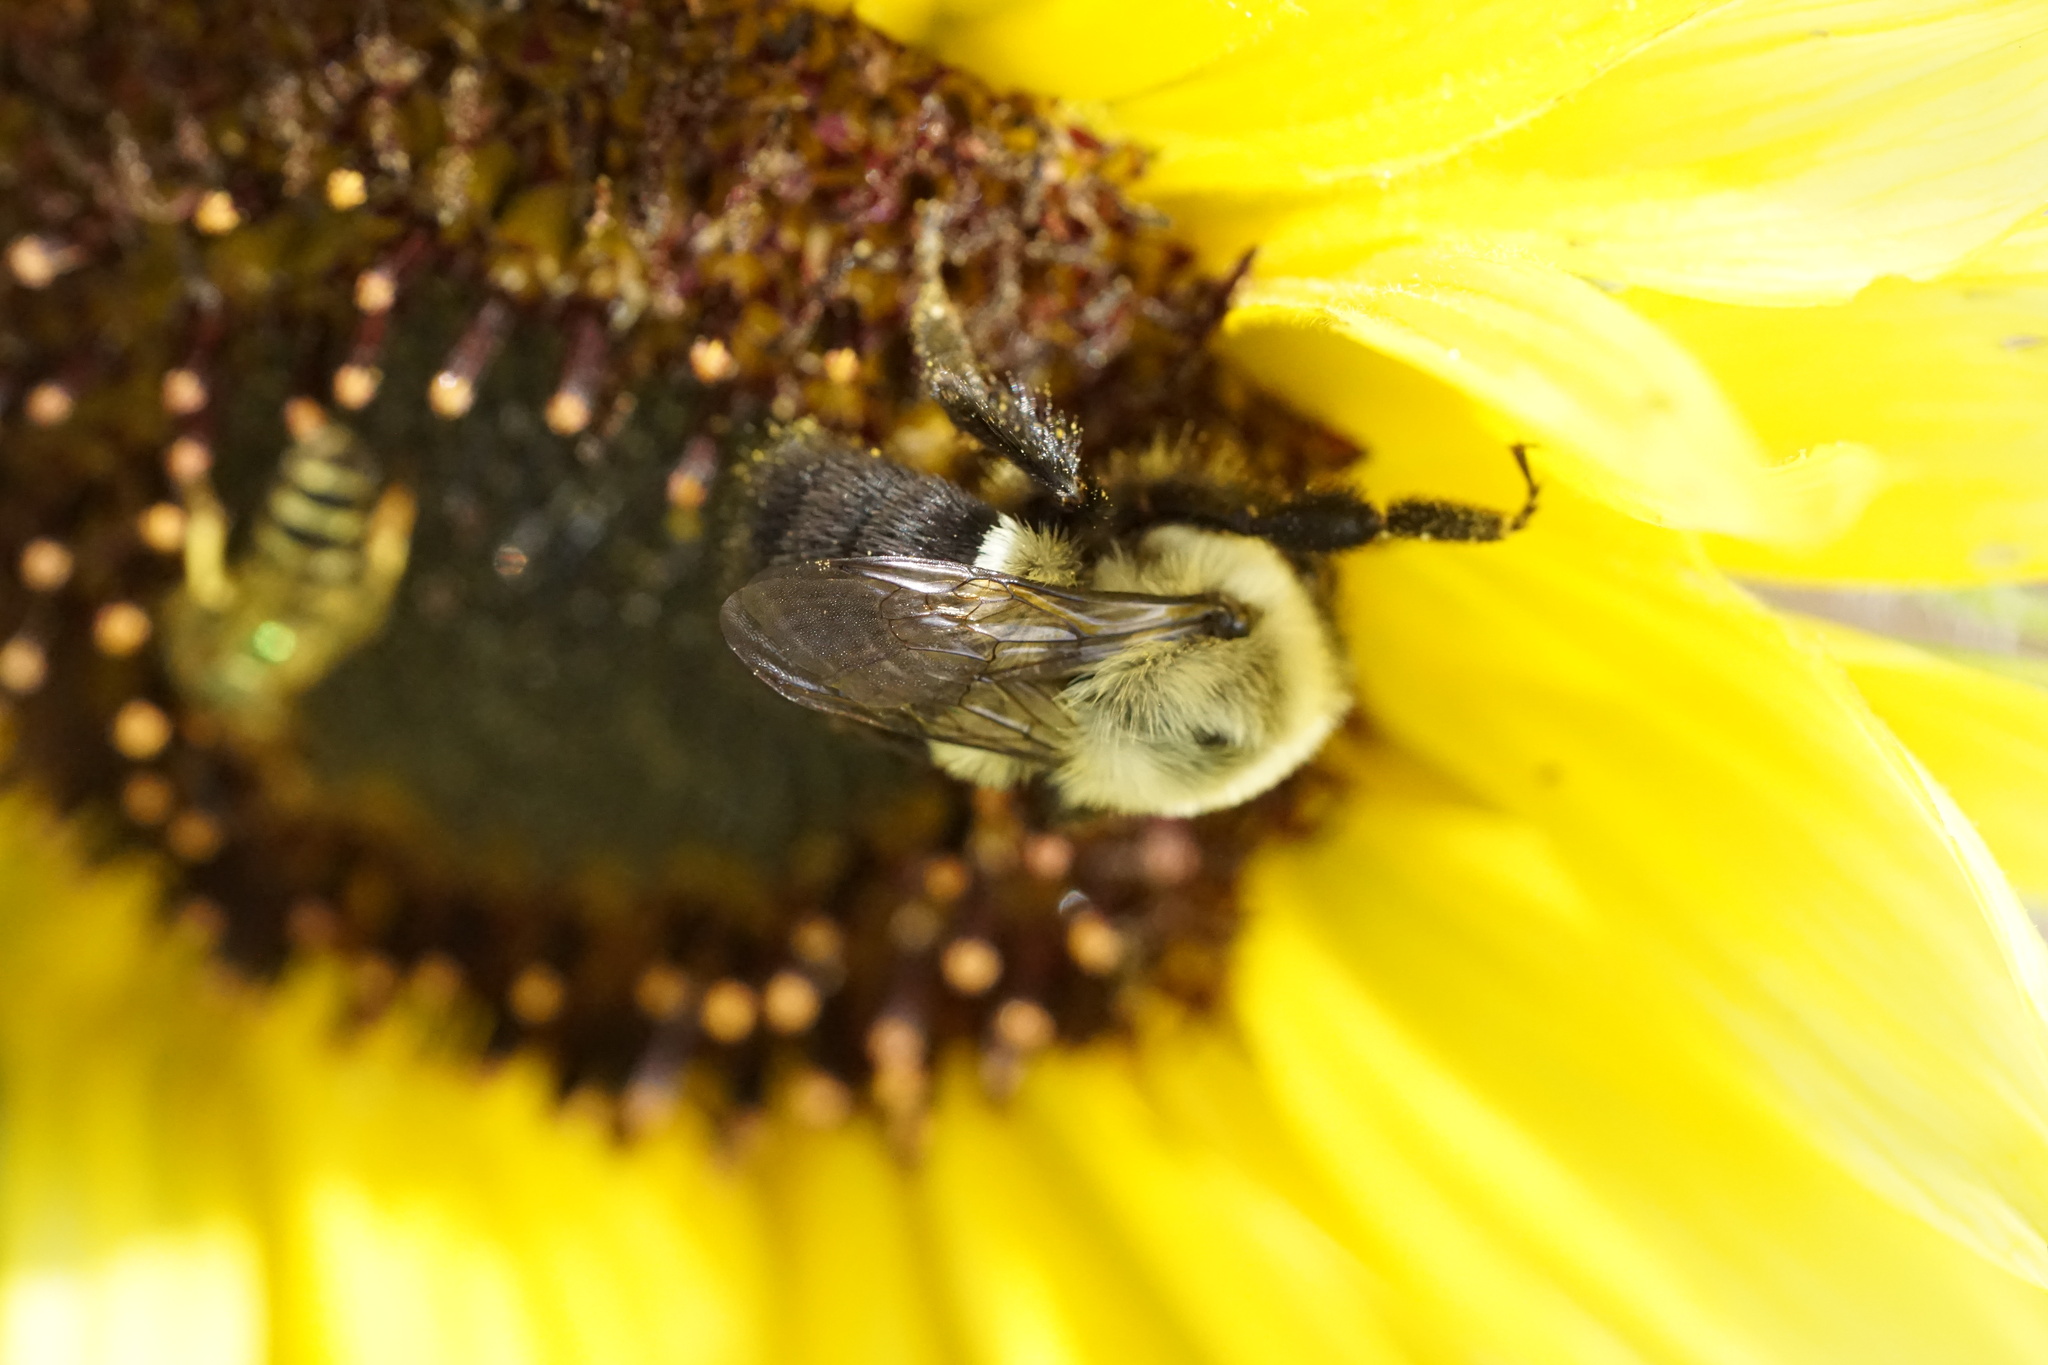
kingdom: Animalia
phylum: Arthropoda
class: Insecta
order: Hymenoptera
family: Apidae
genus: Bombus
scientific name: Bombus impatiens
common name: Common eastern bumble bee
